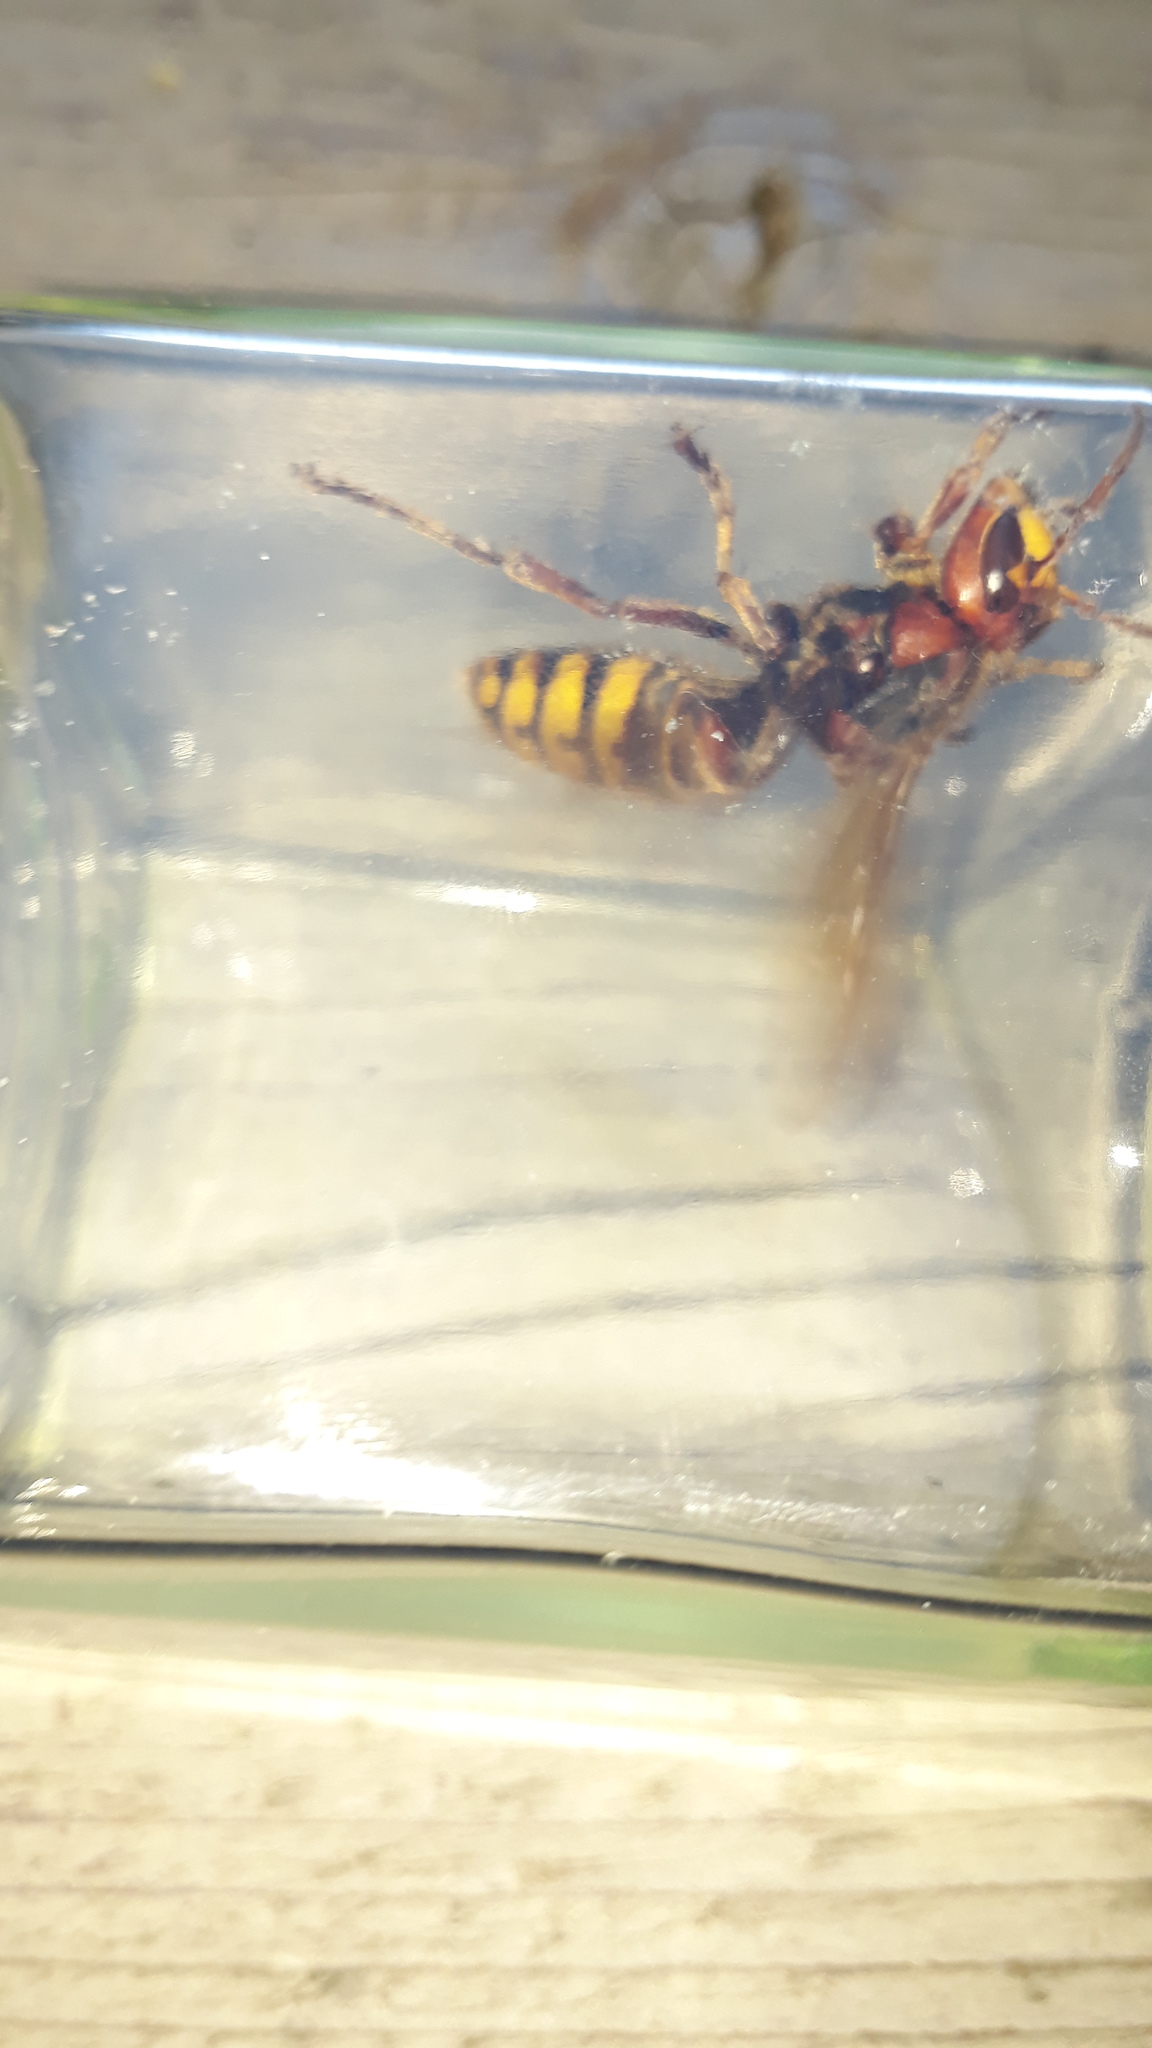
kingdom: Animalia
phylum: Arthropoda
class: Insecta
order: Hymenoptera
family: Vespidae
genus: Vespa
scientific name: Vespa crabro
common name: Hornet
